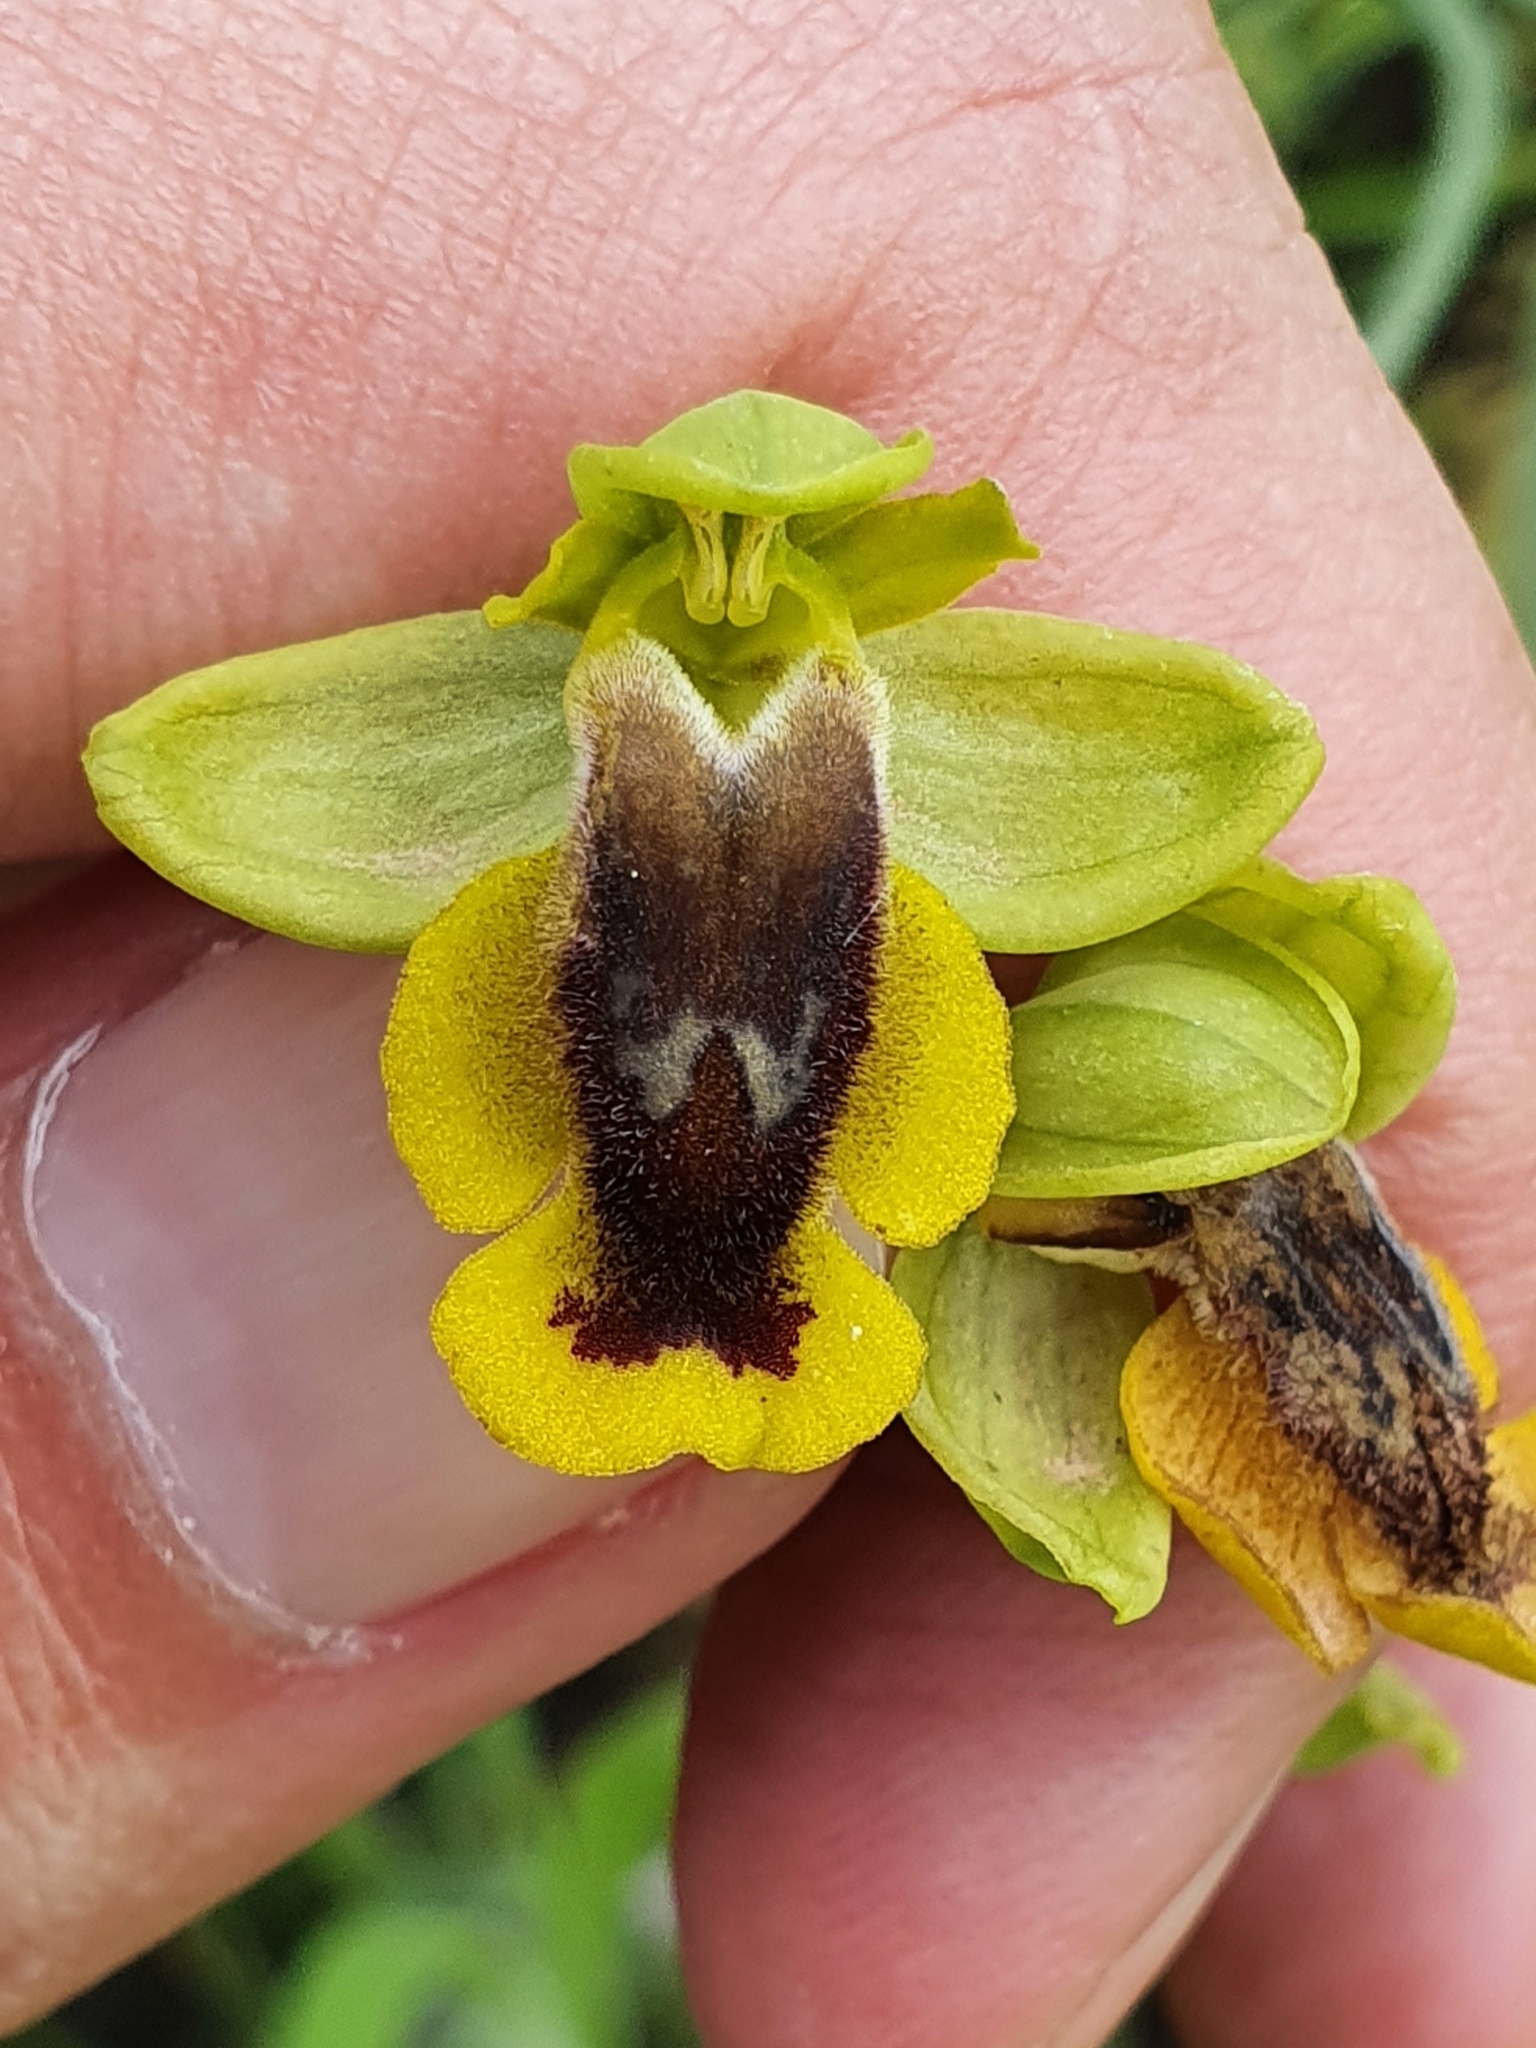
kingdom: Plantae
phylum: Tracheophyta
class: Liliopsida
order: Asparagales
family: Orchidaceae
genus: Ophrys
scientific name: Ophrys lutea
